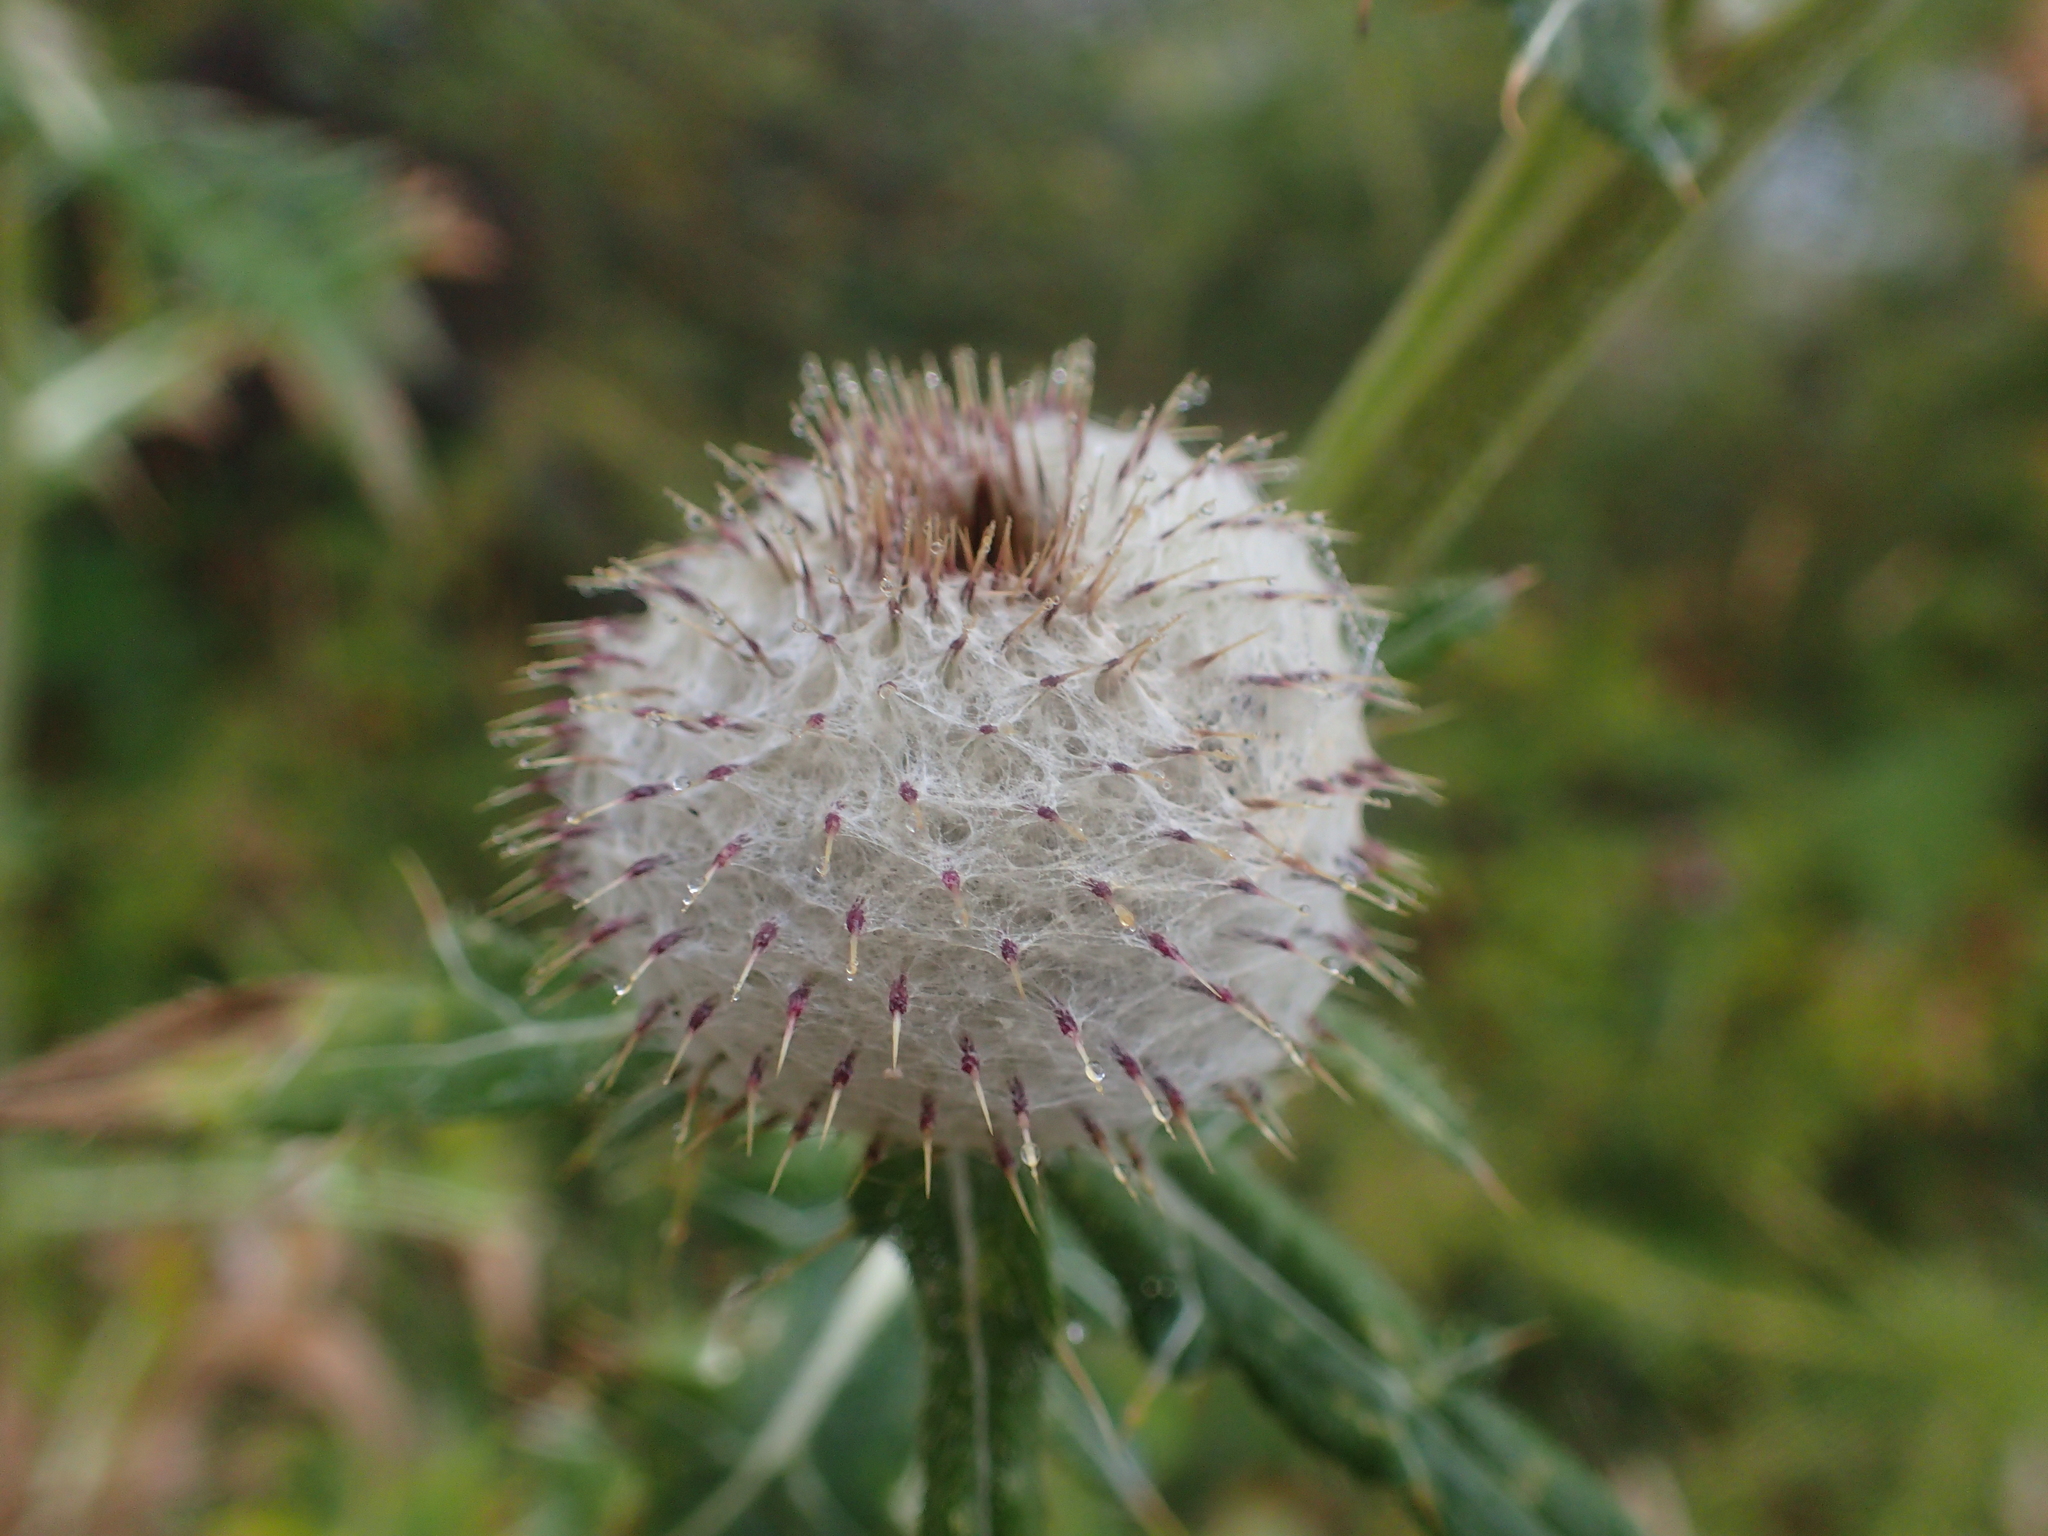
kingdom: Plantae
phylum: Tracheophyta
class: Magnoliopsida
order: Asterales
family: Asteraceae
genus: Lophiolepis
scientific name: Lophiolepis eriophora
